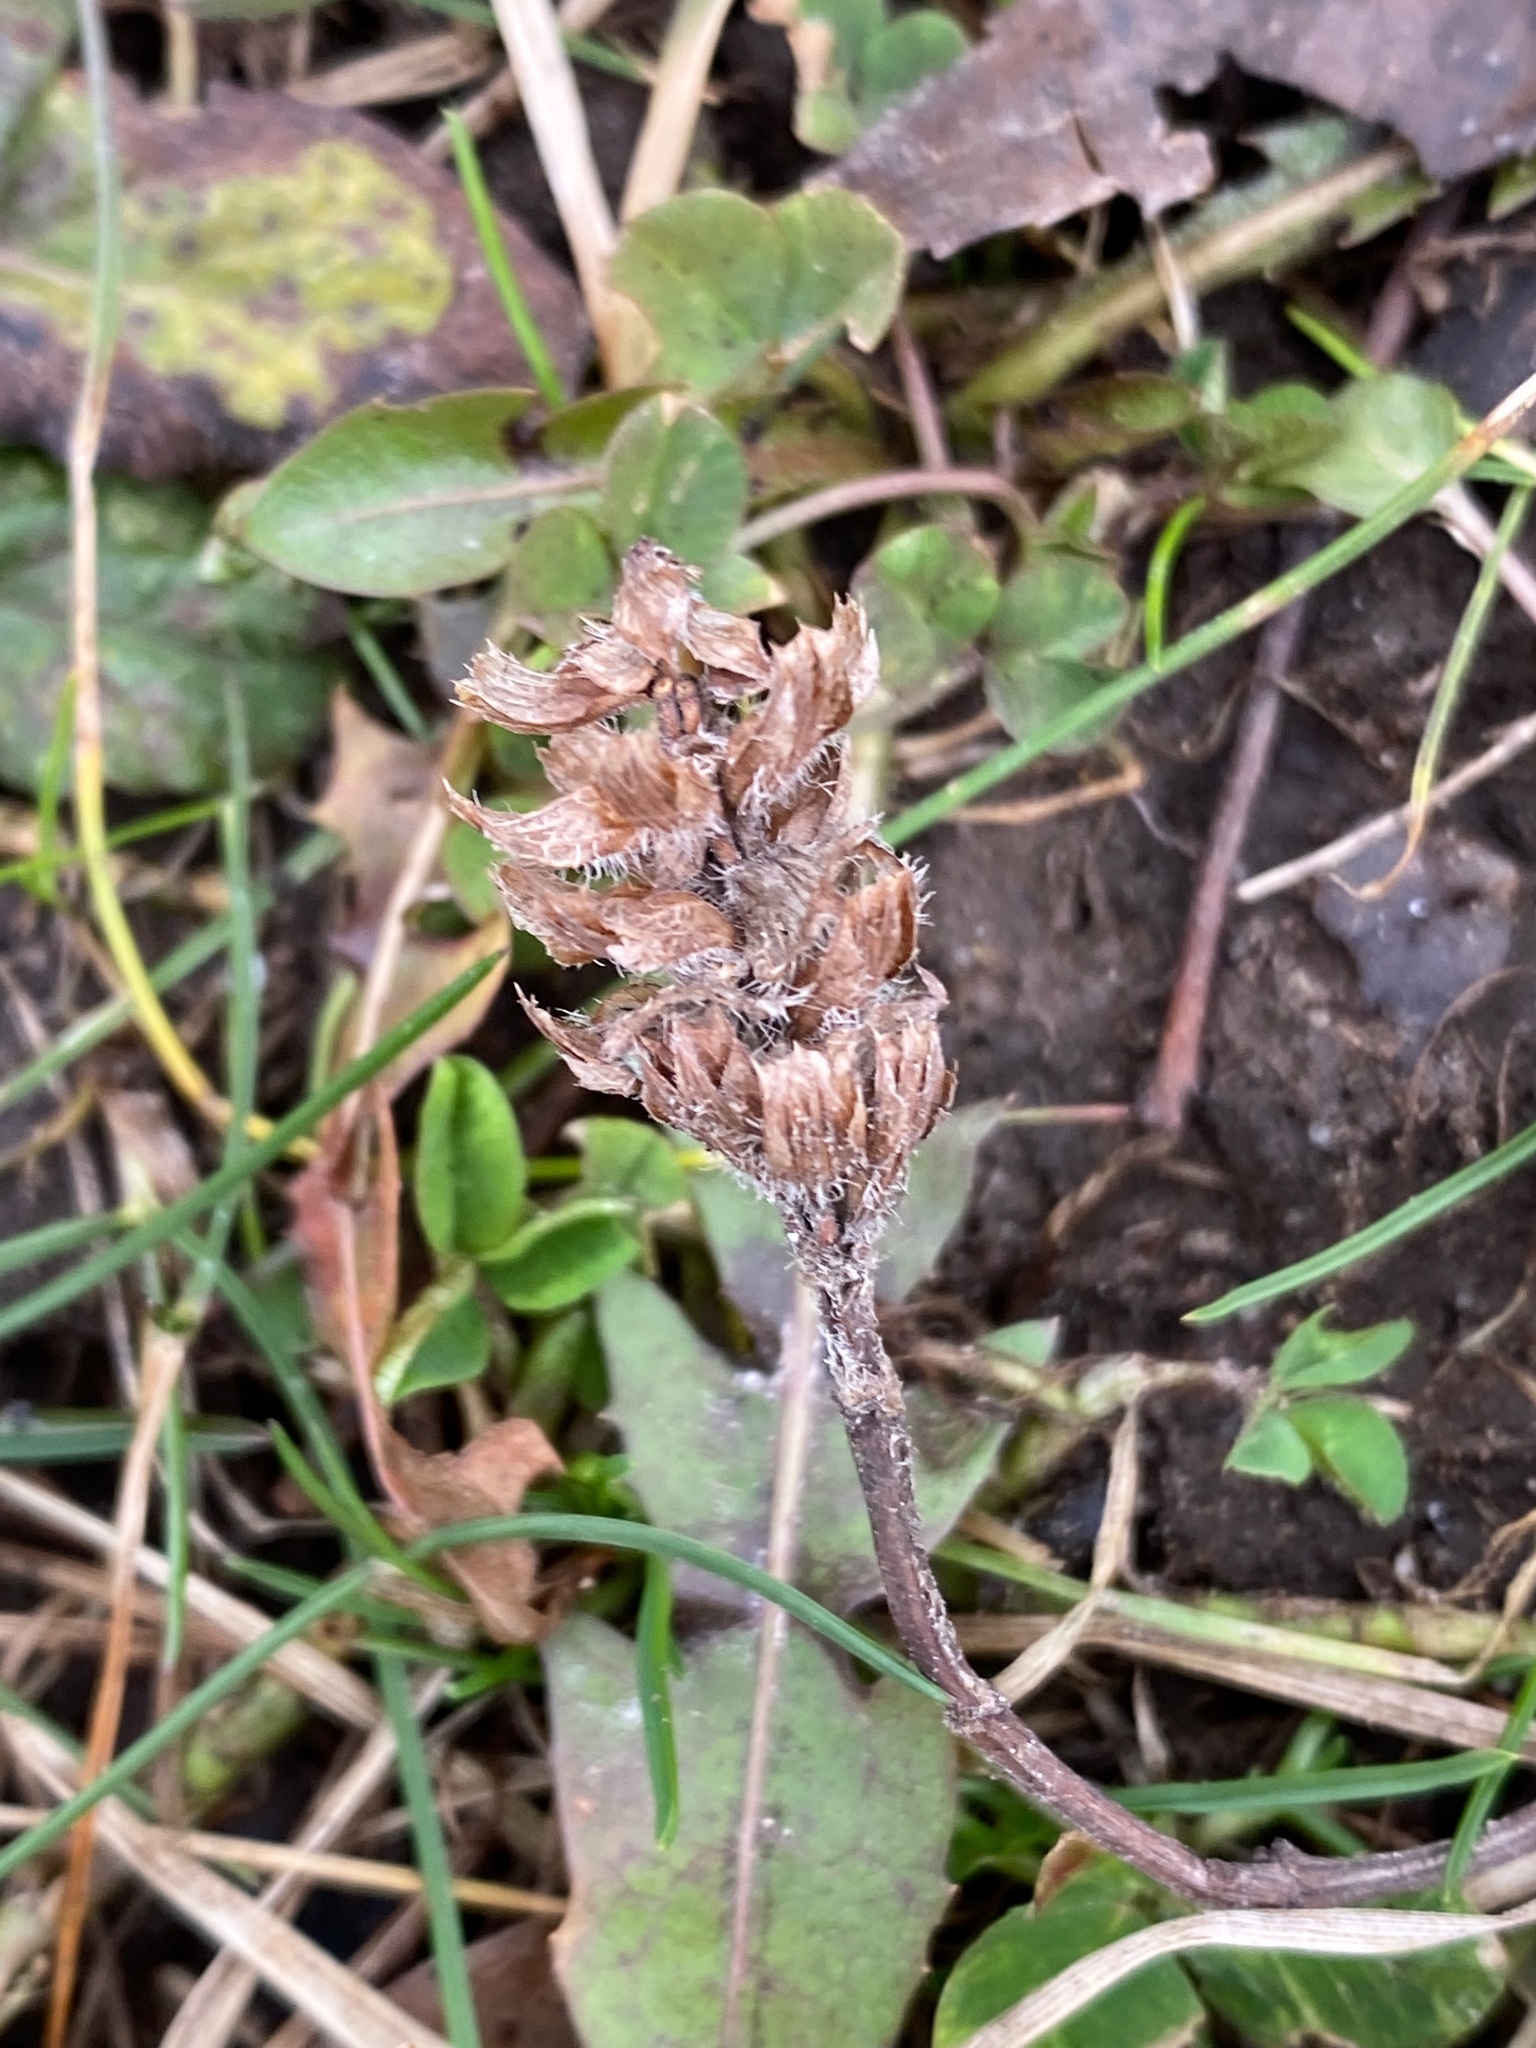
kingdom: Plantae
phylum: Tracheophyta
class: Magnoliopsida
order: Lamiales
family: Lamiaceae
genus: Prunella
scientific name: Prunella vulgaris
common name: Heal-all
